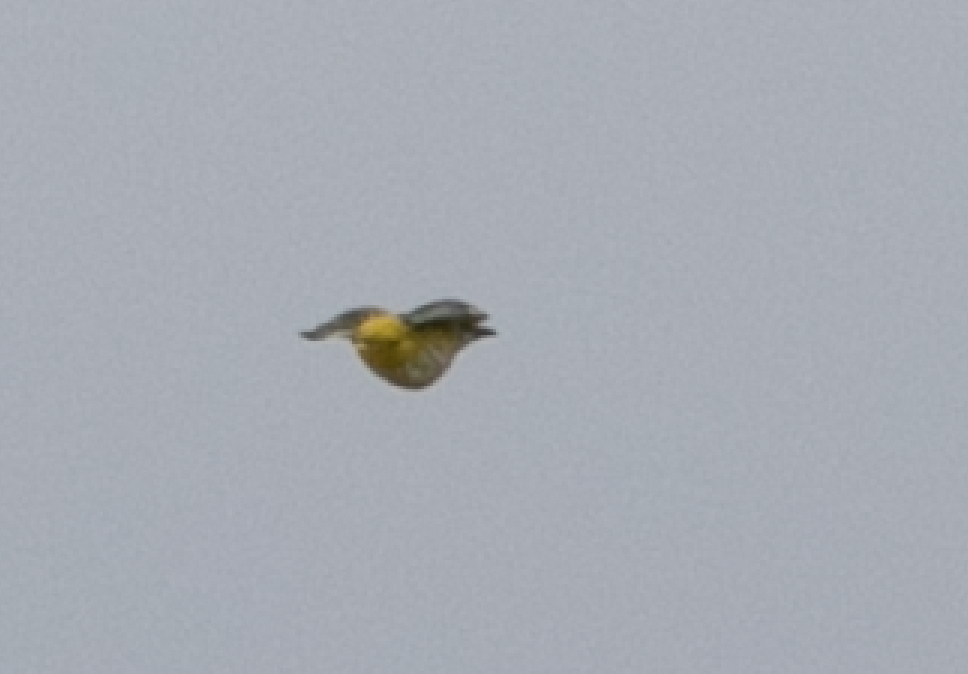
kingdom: Animalia
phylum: Chordata
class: Aves
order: Passeriformes
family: Oriolidae
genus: Oriolus
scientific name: Oriolus oriolus
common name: Eurasian golden oriole
